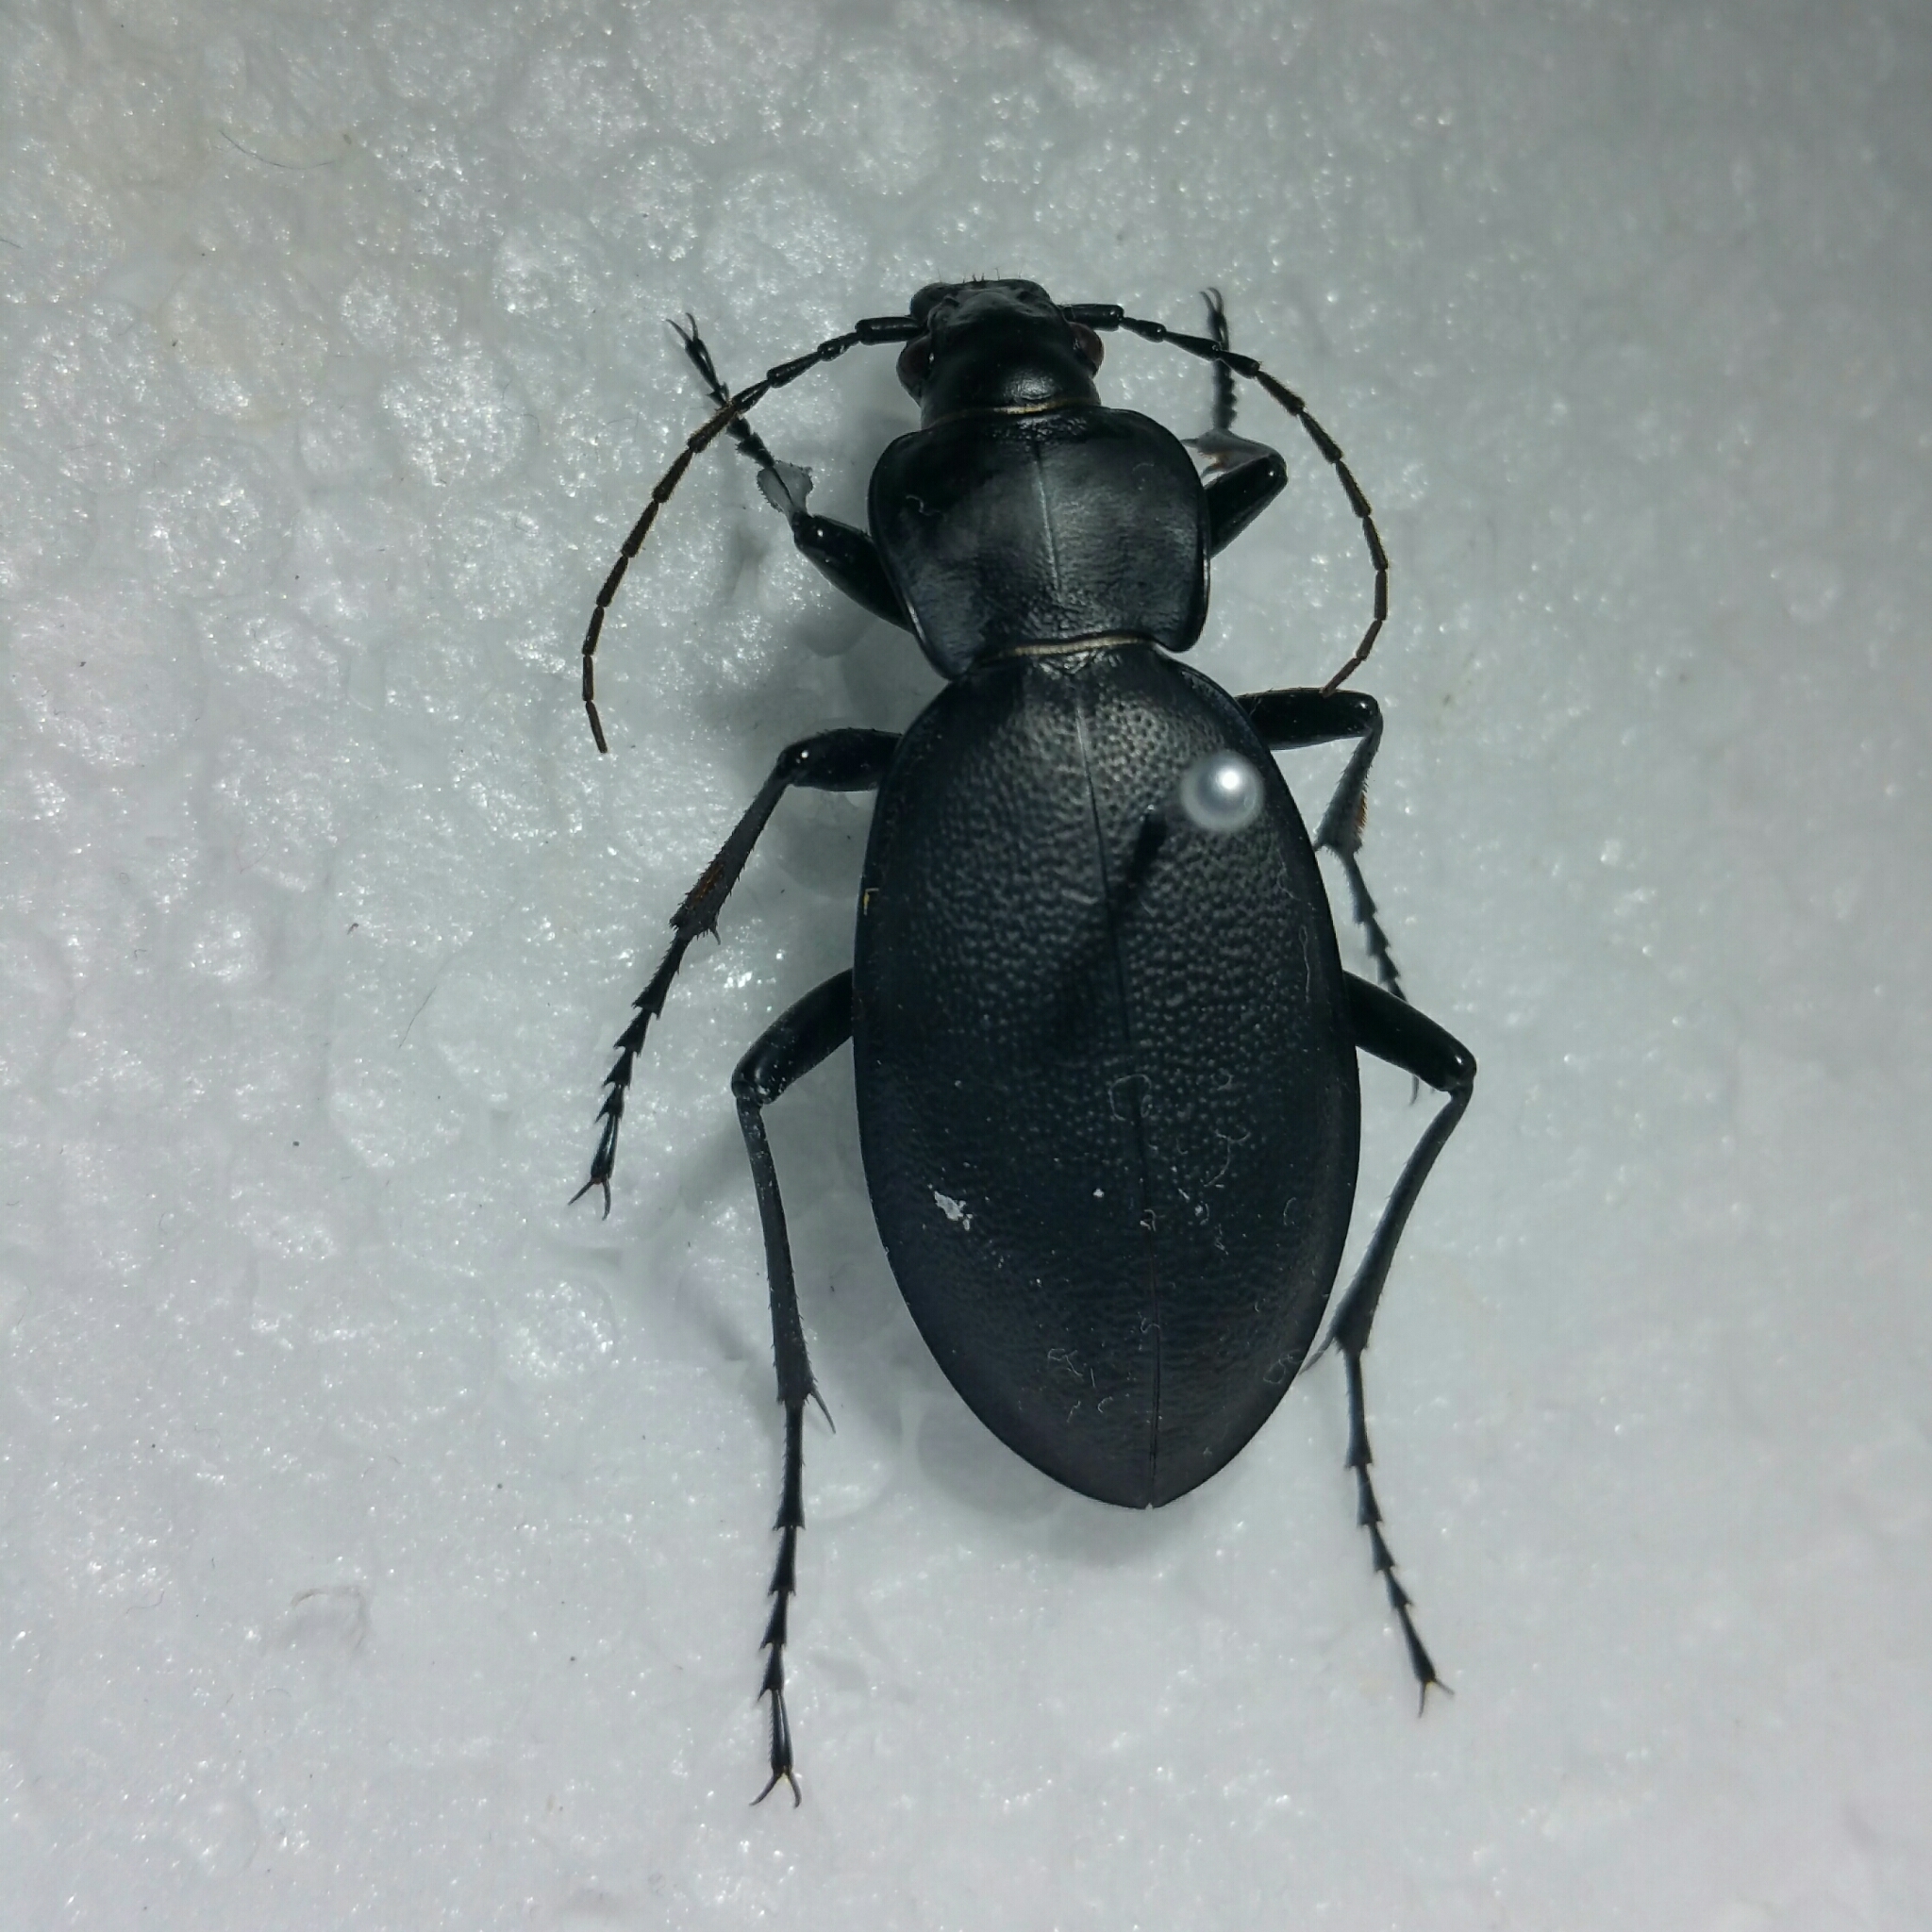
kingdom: Animalia
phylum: Arthropoda
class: Insecta
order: Coleoptera
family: Carabidae
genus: Carabus
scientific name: Carabus coriaceus
